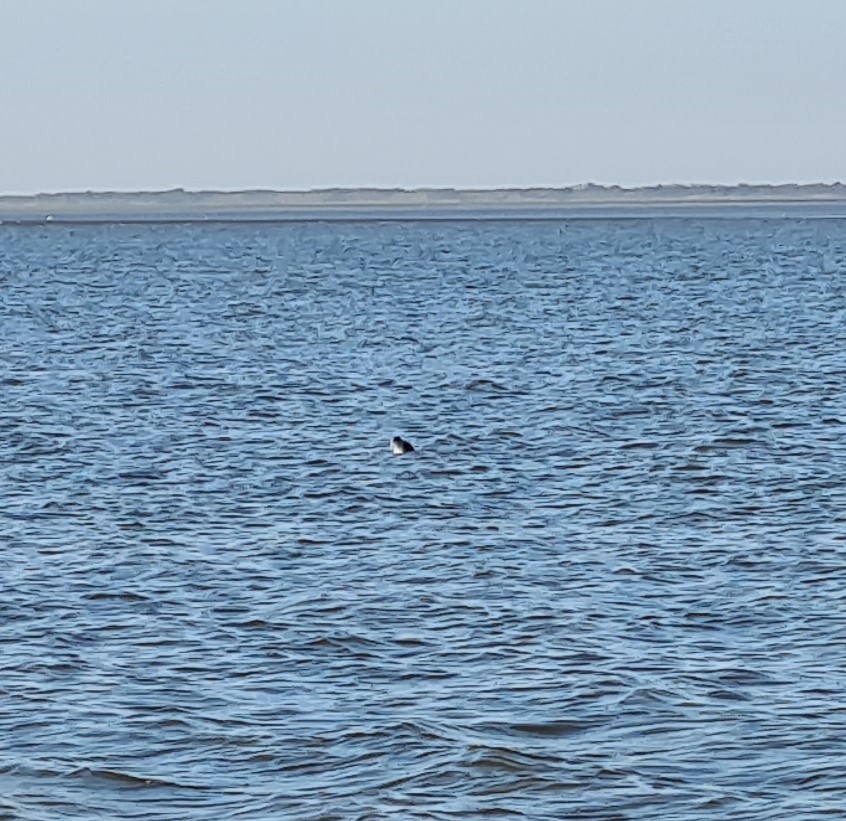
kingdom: Animalia
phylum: Chordata
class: Mammalia
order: Carnivora
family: Phocidae
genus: Phoca
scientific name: Phoca vitulina
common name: Harbor seal
